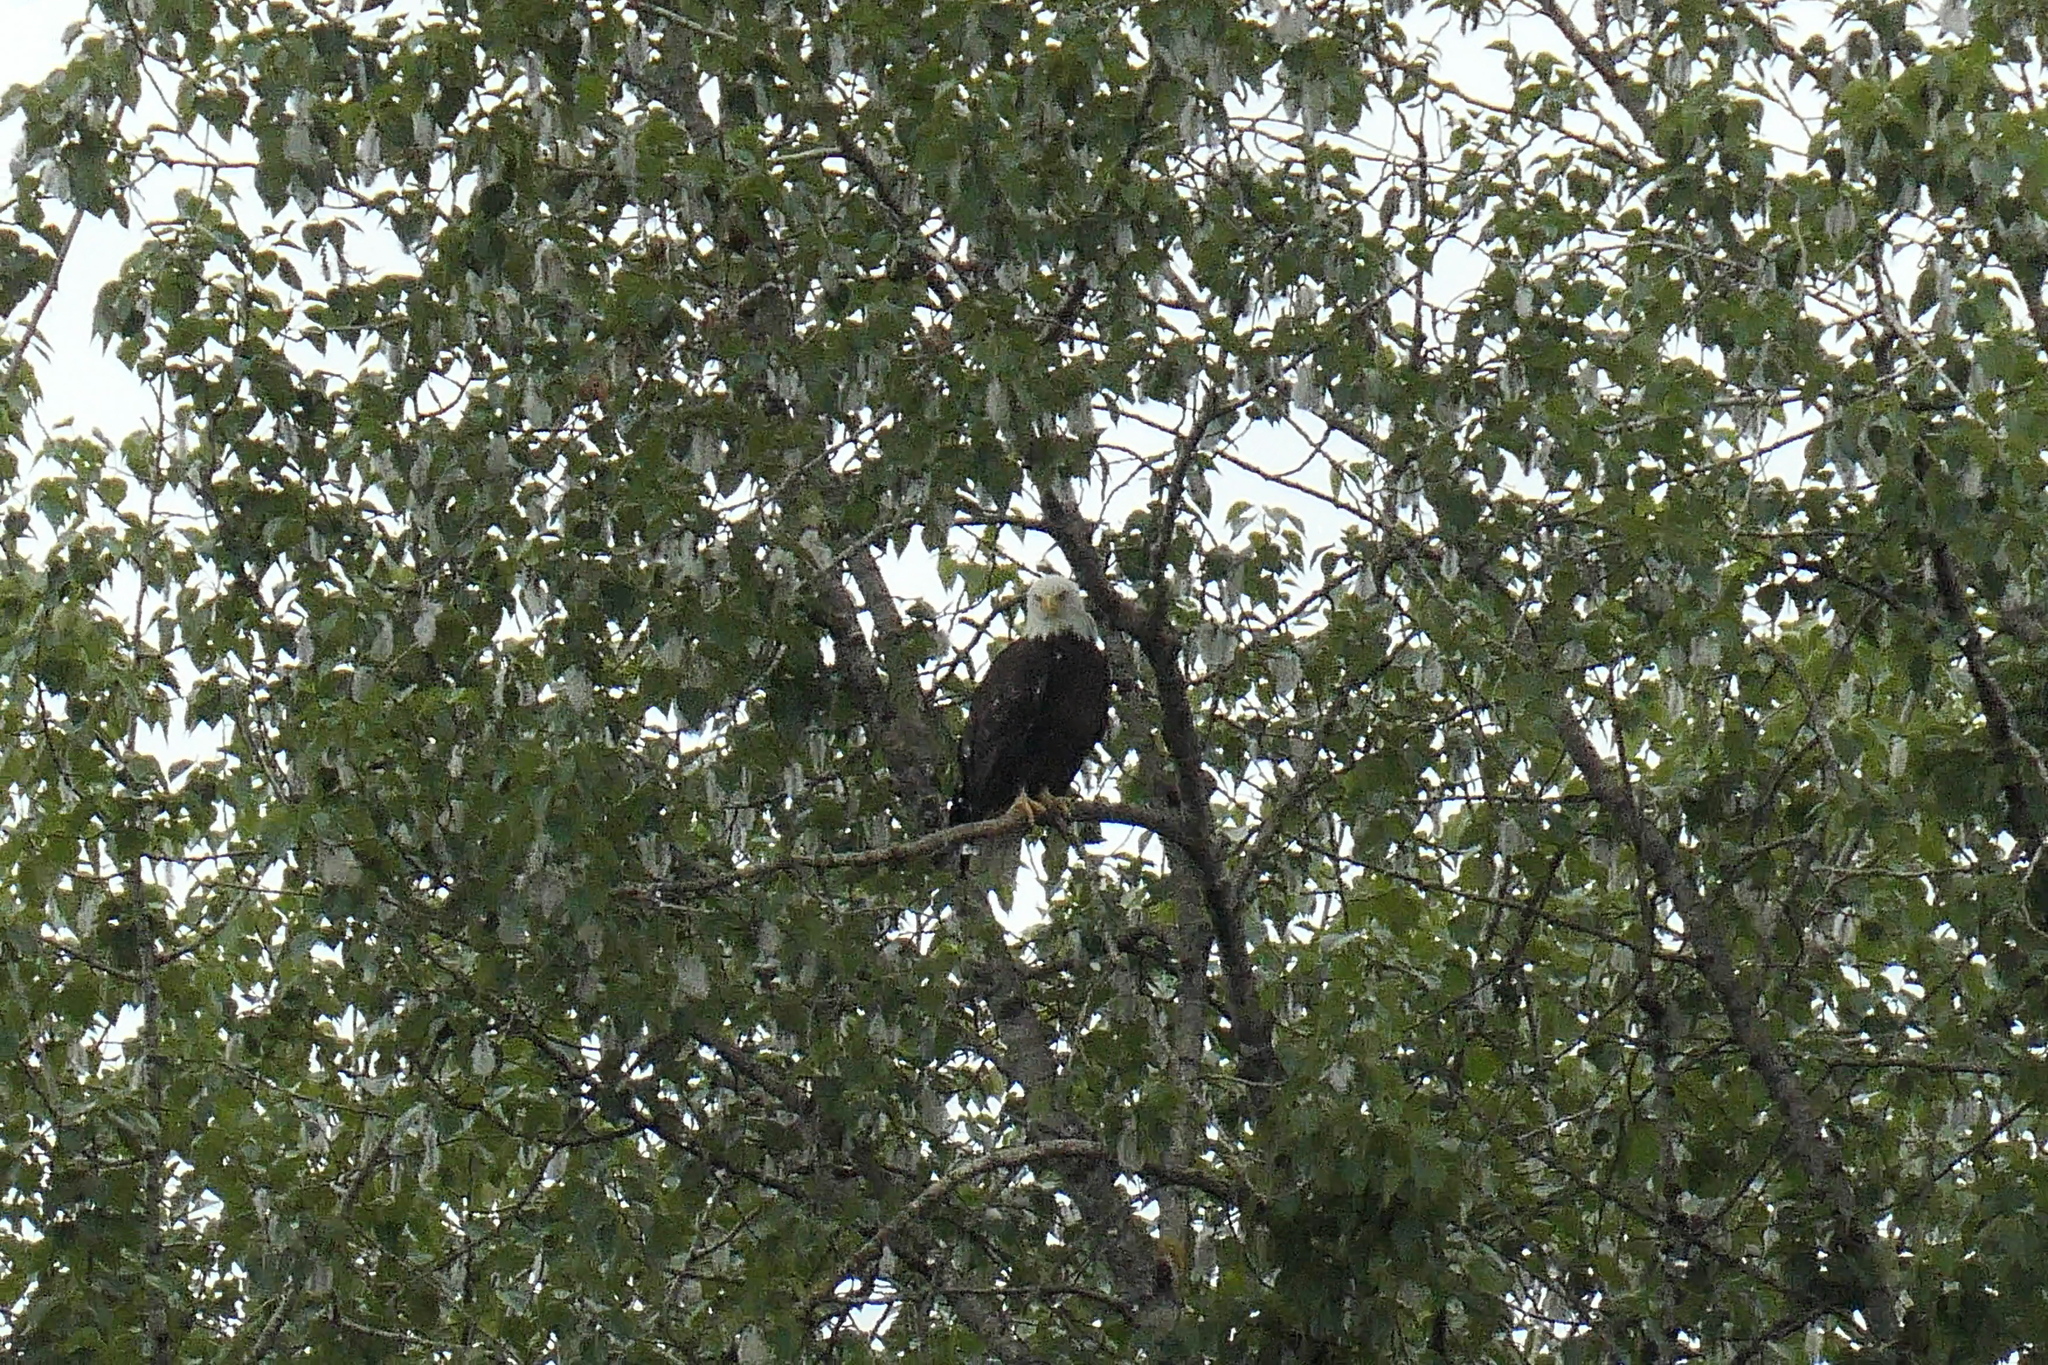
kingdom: Animalia
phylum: Chordata
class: Aves
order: Accipitriformes
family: Accipitridae
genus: Haliaeetus
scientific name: Haliaeetus leucocephalus
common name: Bald eagle
